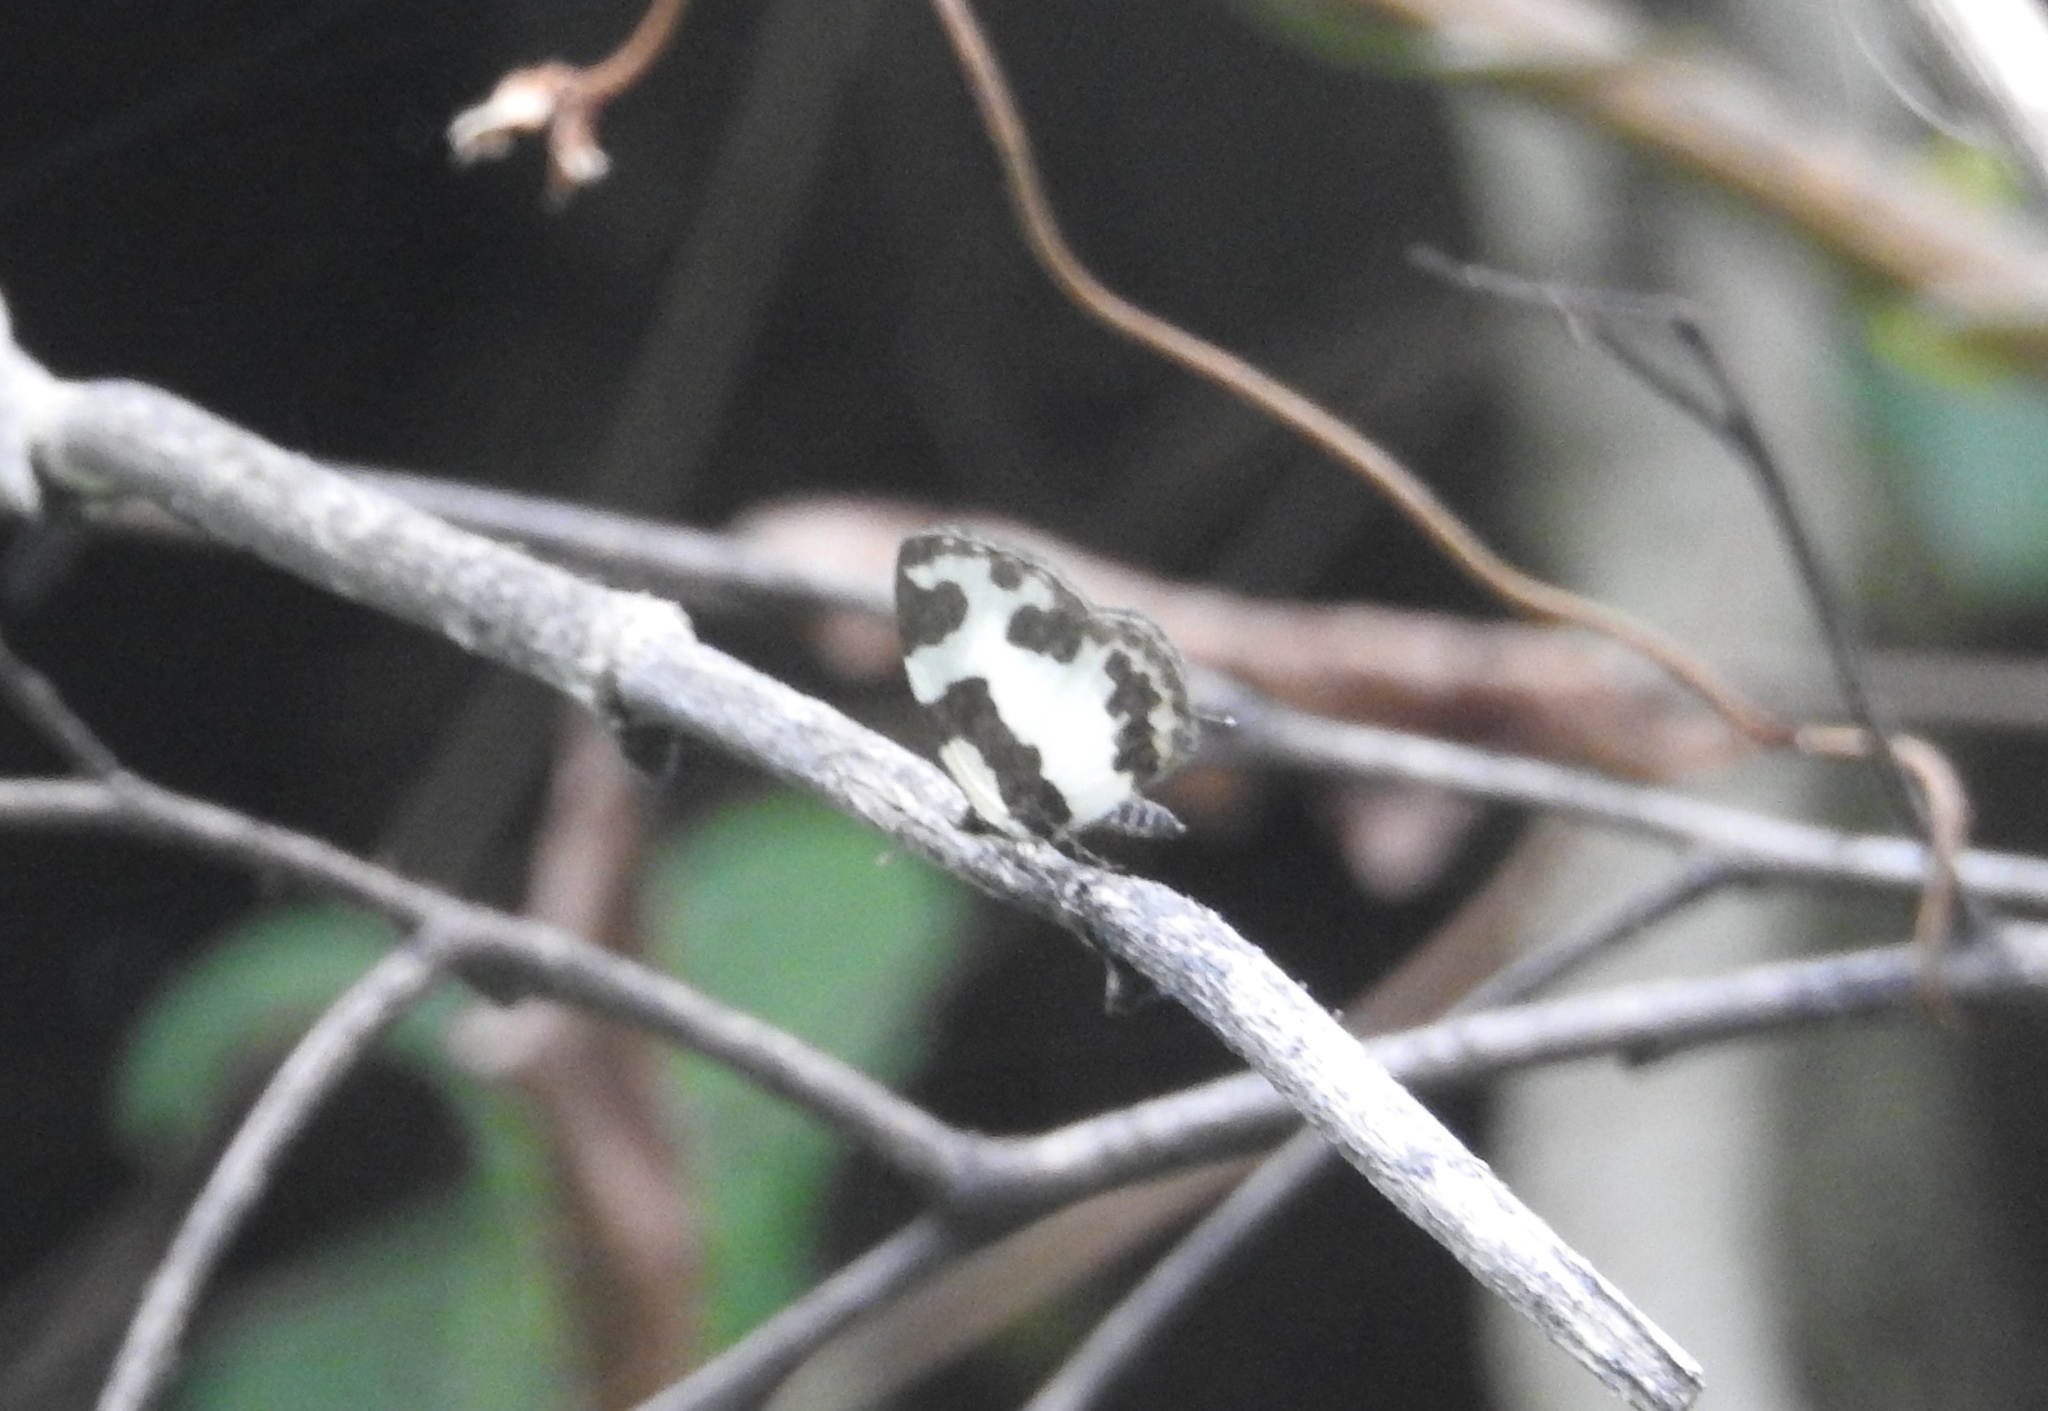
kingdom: Animalia
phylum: Arthropoda
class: Insecta
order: Lepidoptera
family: Lycaenidae
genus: Caleta
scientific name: Caleta elna
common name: Elbowed pierrot
